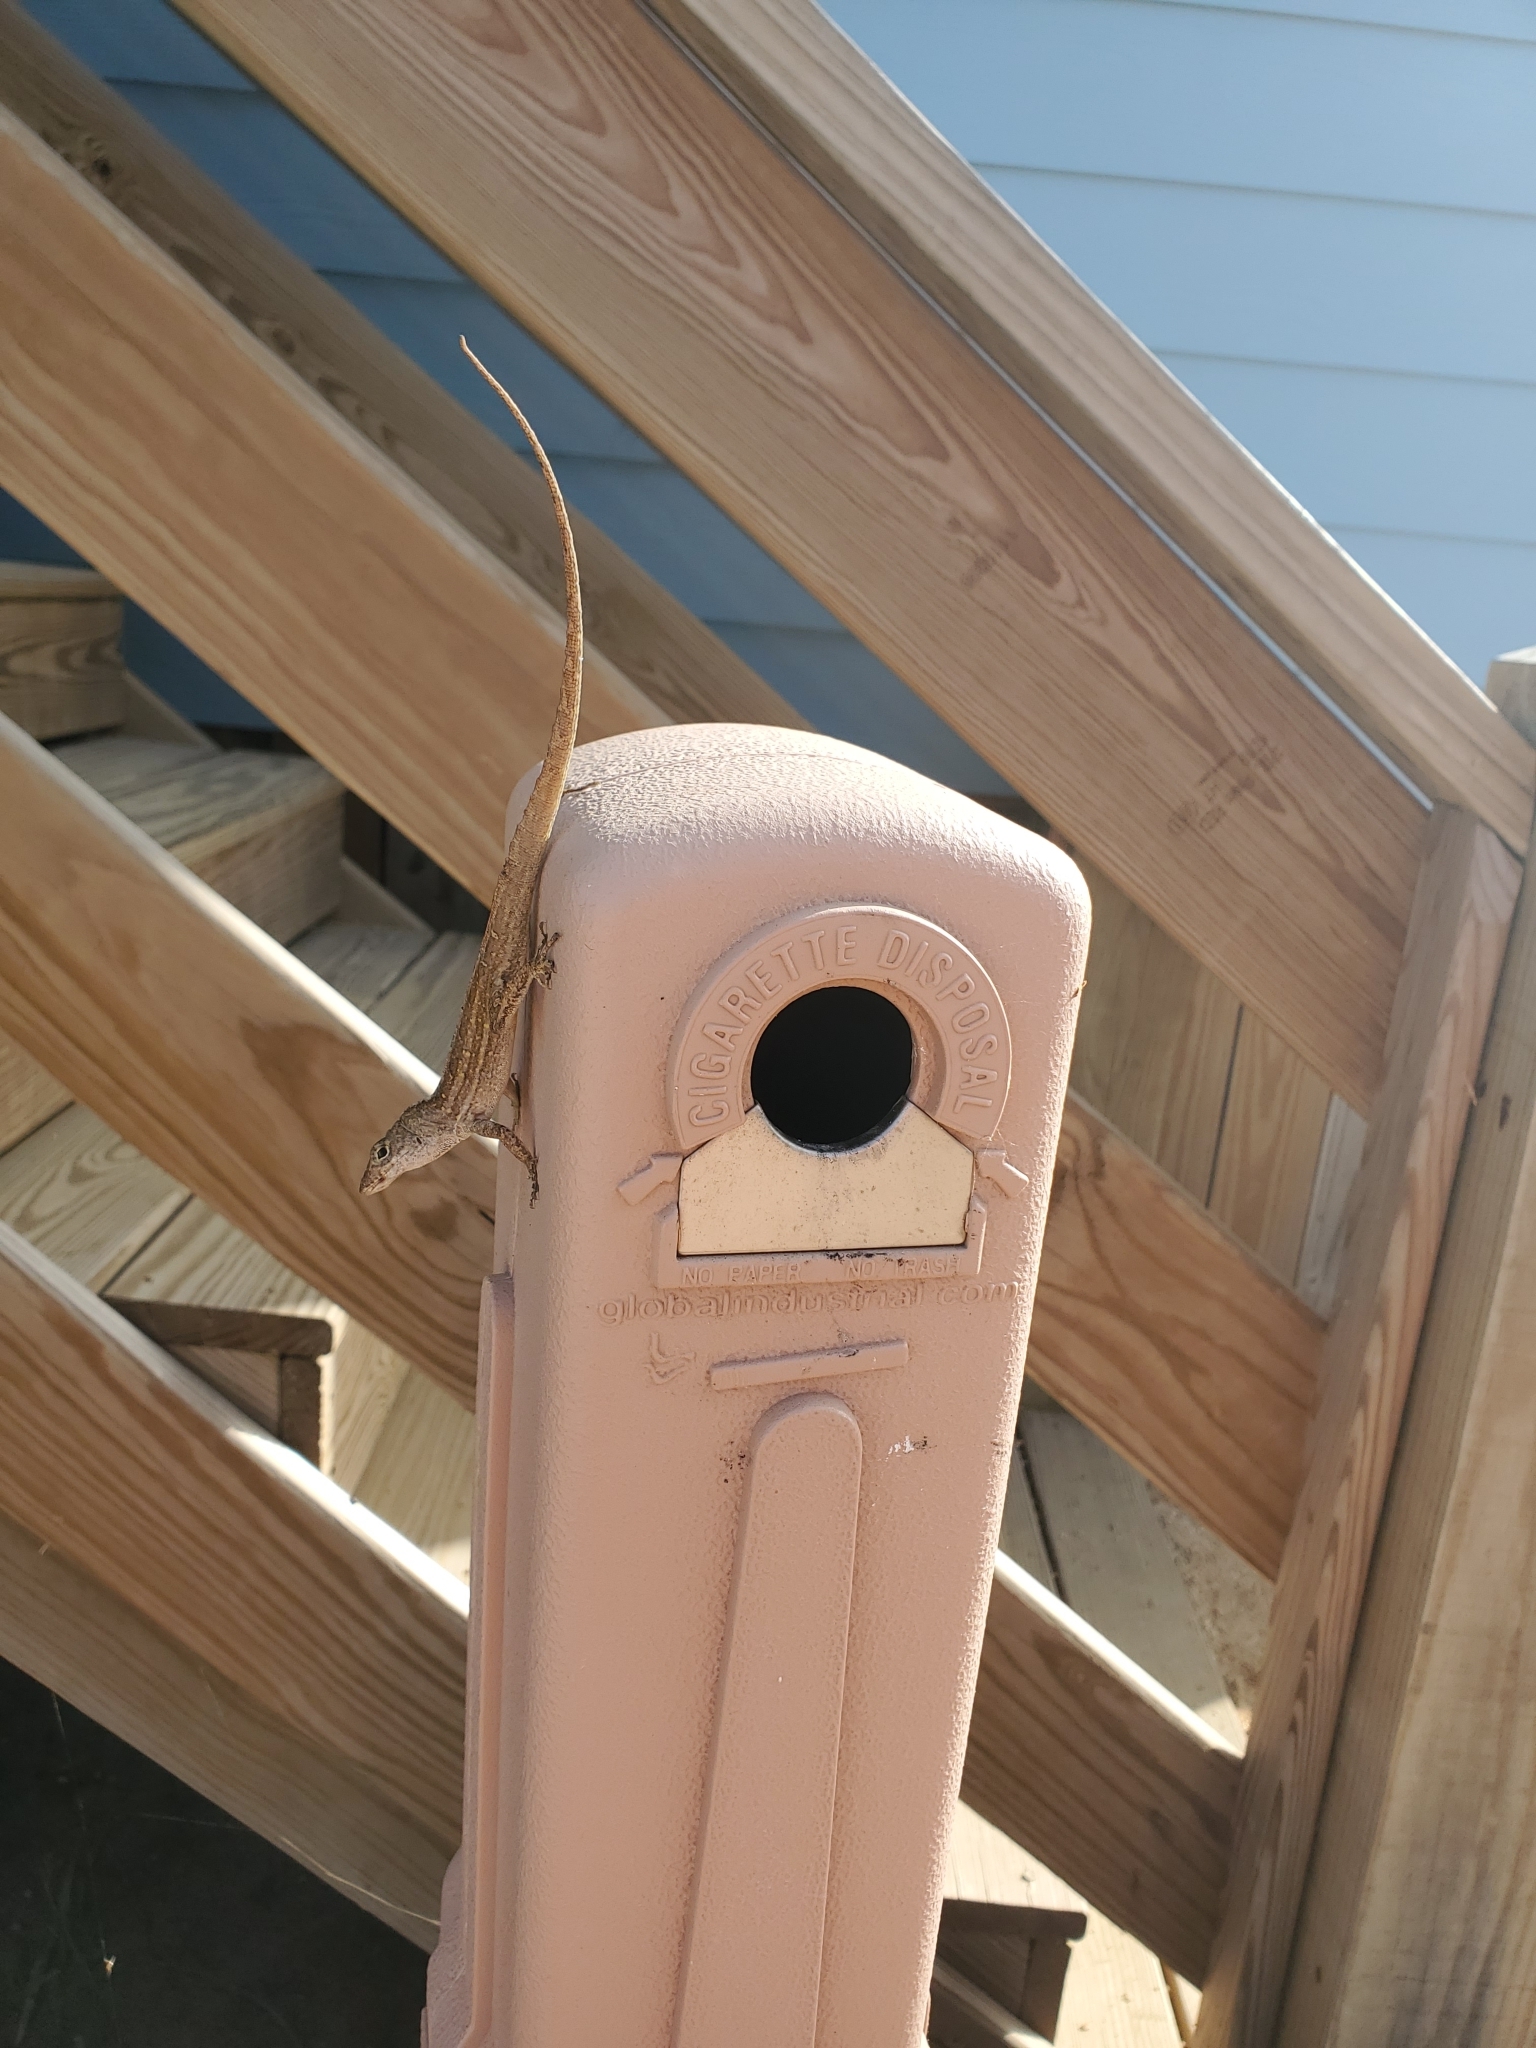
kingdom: Animalia
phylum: Chordata
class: Squamata
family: Dactyloidae
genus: Anolis
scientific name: Anolis sagrei
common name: Brown anole
